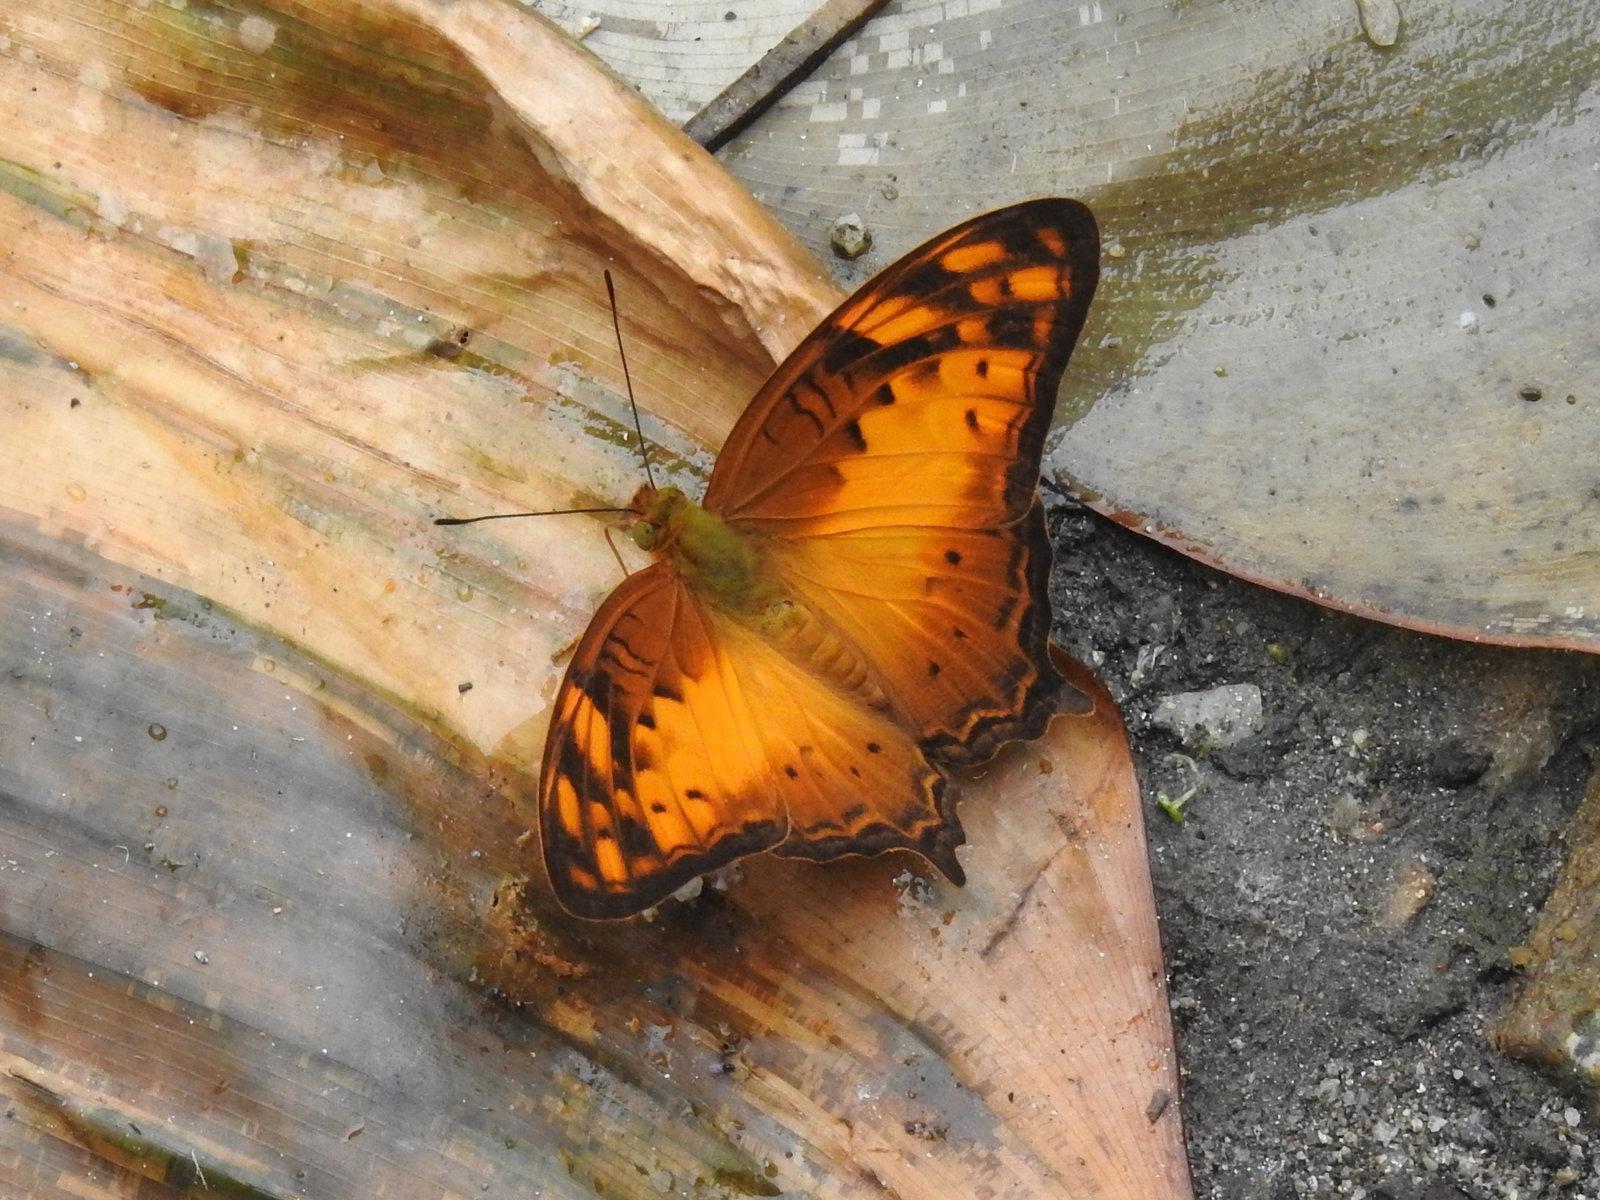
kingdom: Animalia
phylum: Arthropoda
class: Insecta
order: Lepidoptera
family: Nymphalidae
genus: Vagrans
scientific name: Vagrans sinha
